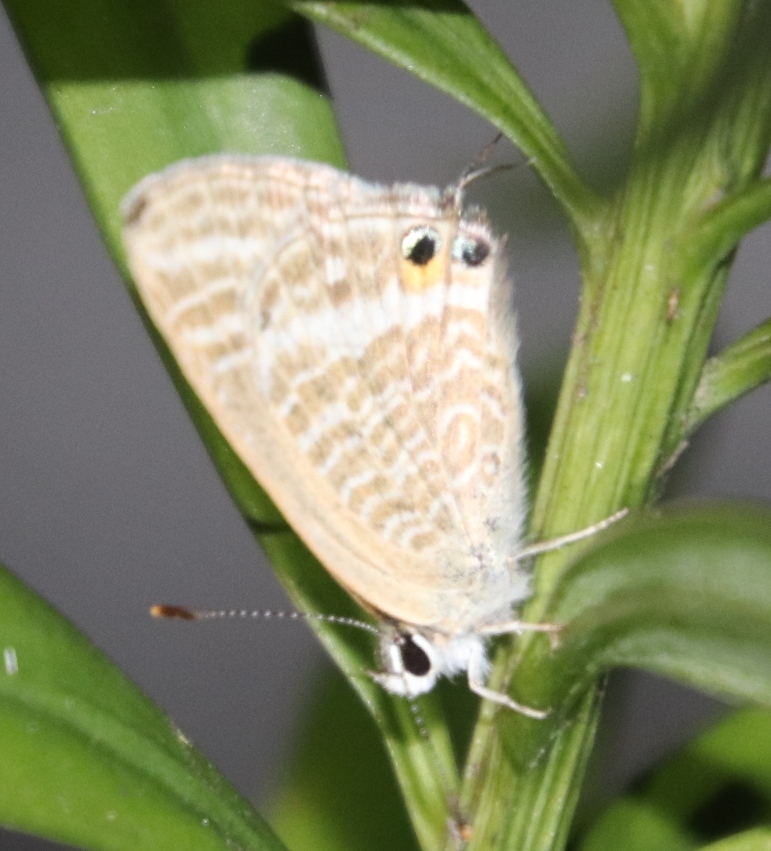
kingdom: Animalia
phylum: Arthropoda
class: Insecta
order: Lepidoptera
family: Lycaenidae
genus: Lampides
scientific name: Lampides boeticus
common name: Long-tailed blue
